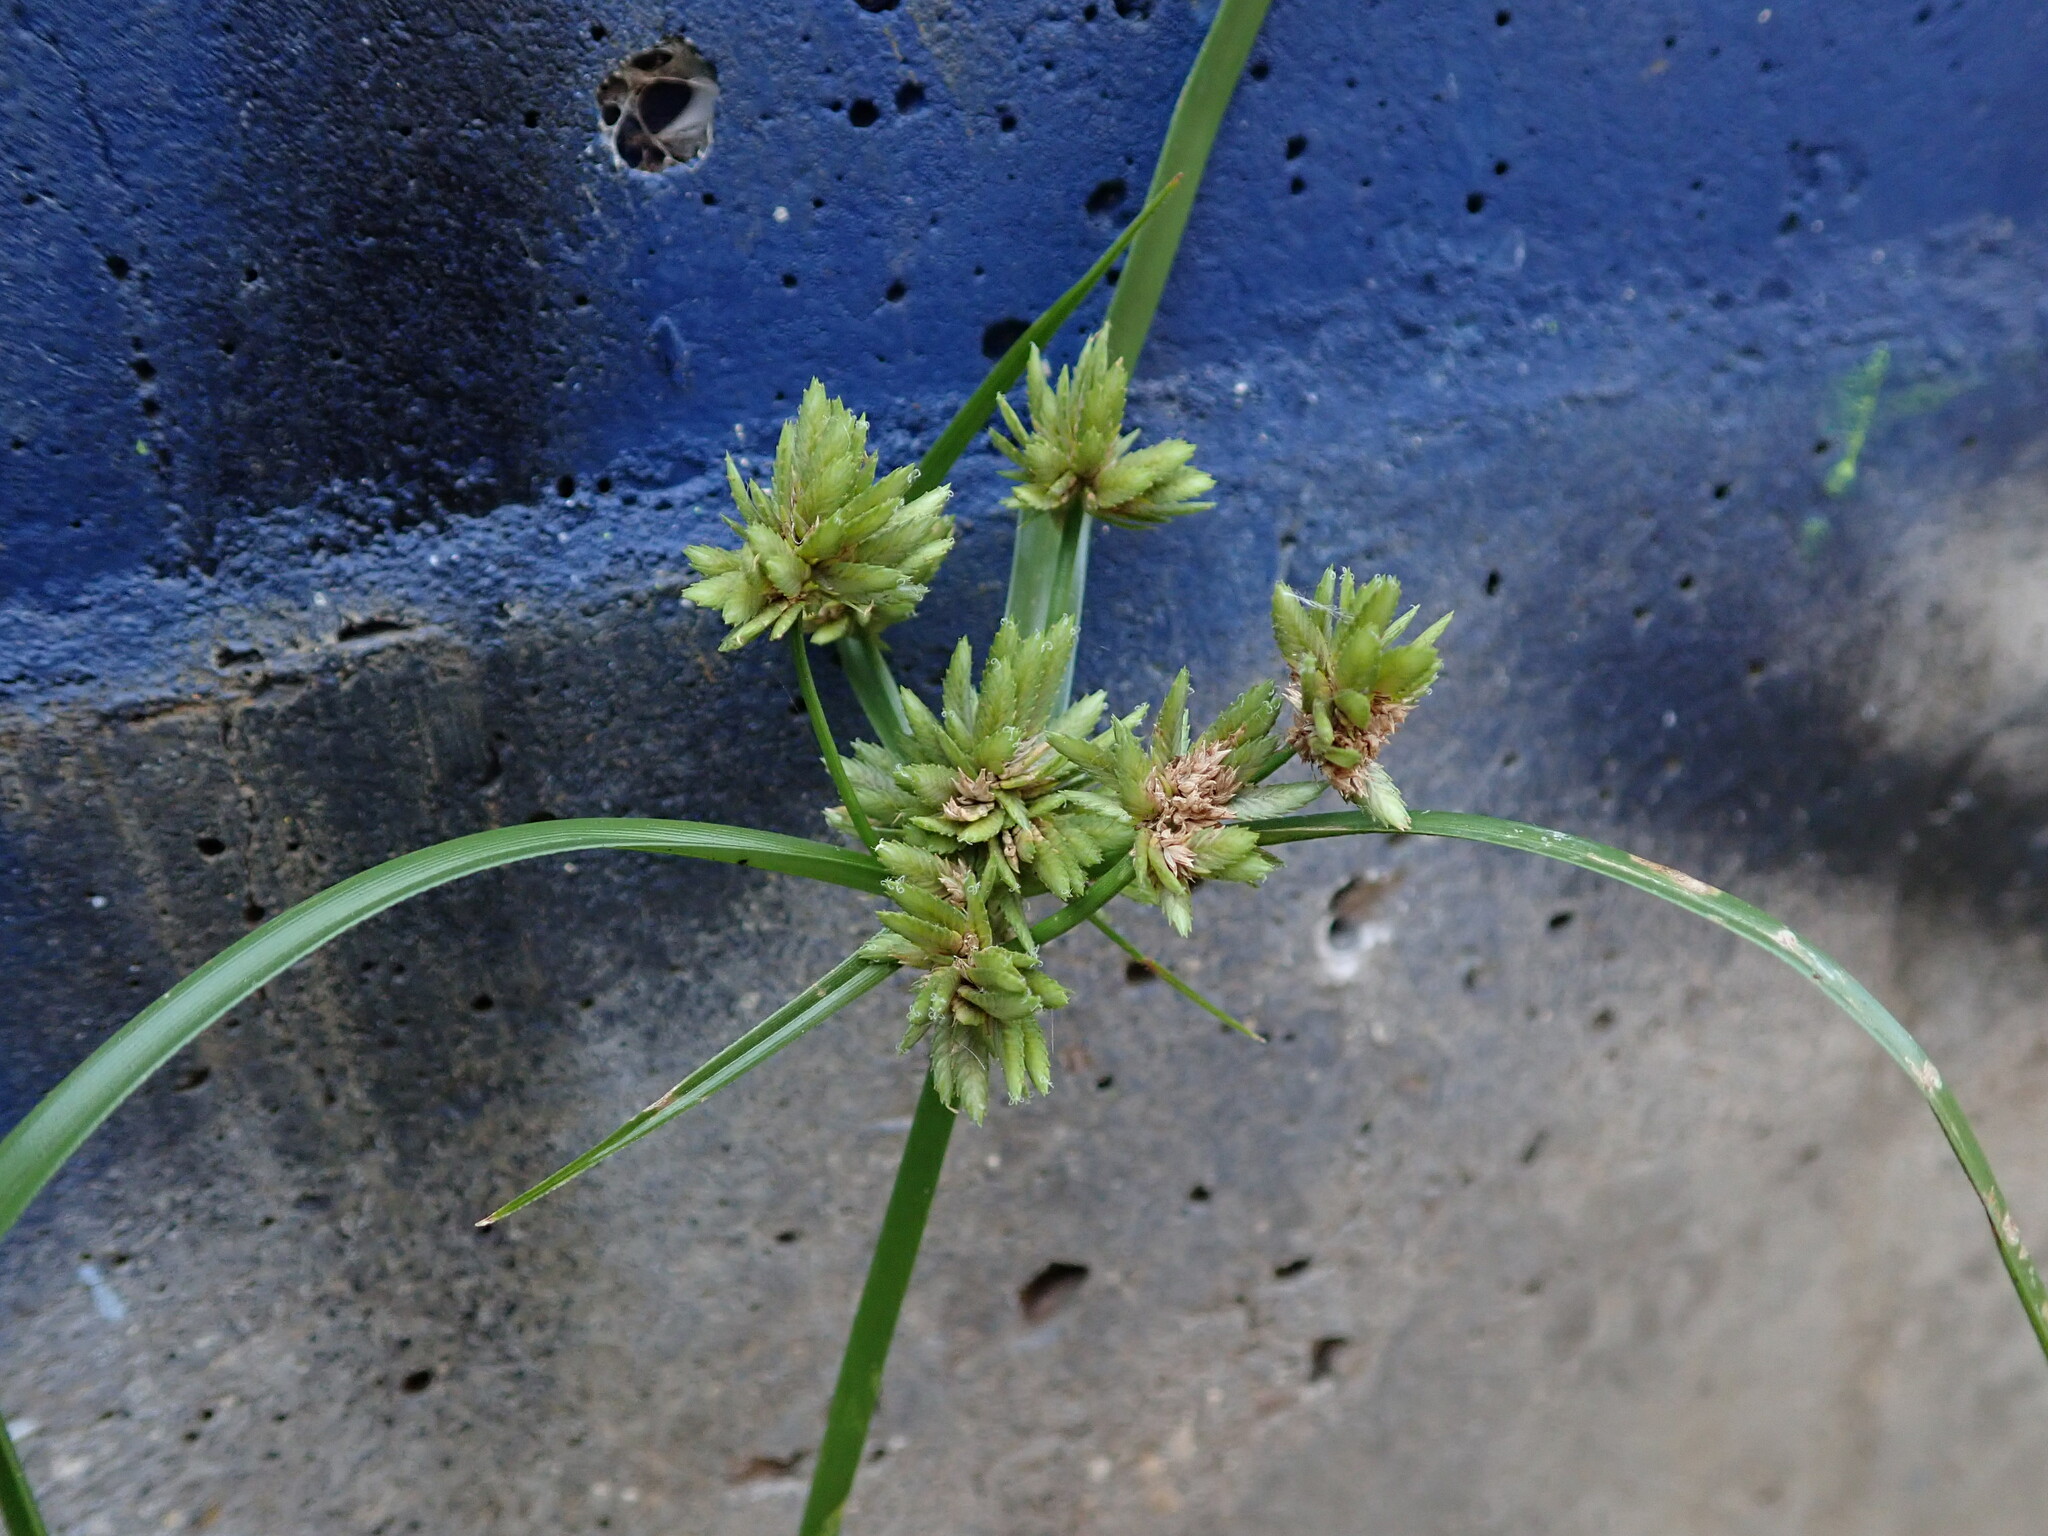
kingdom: Plantae
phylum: Tracheophyta
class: Liliopsida
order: Poales
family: Cyperaceae
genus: Cyperus
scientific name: Cyperus eragrostis
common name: Tall flatsedge
